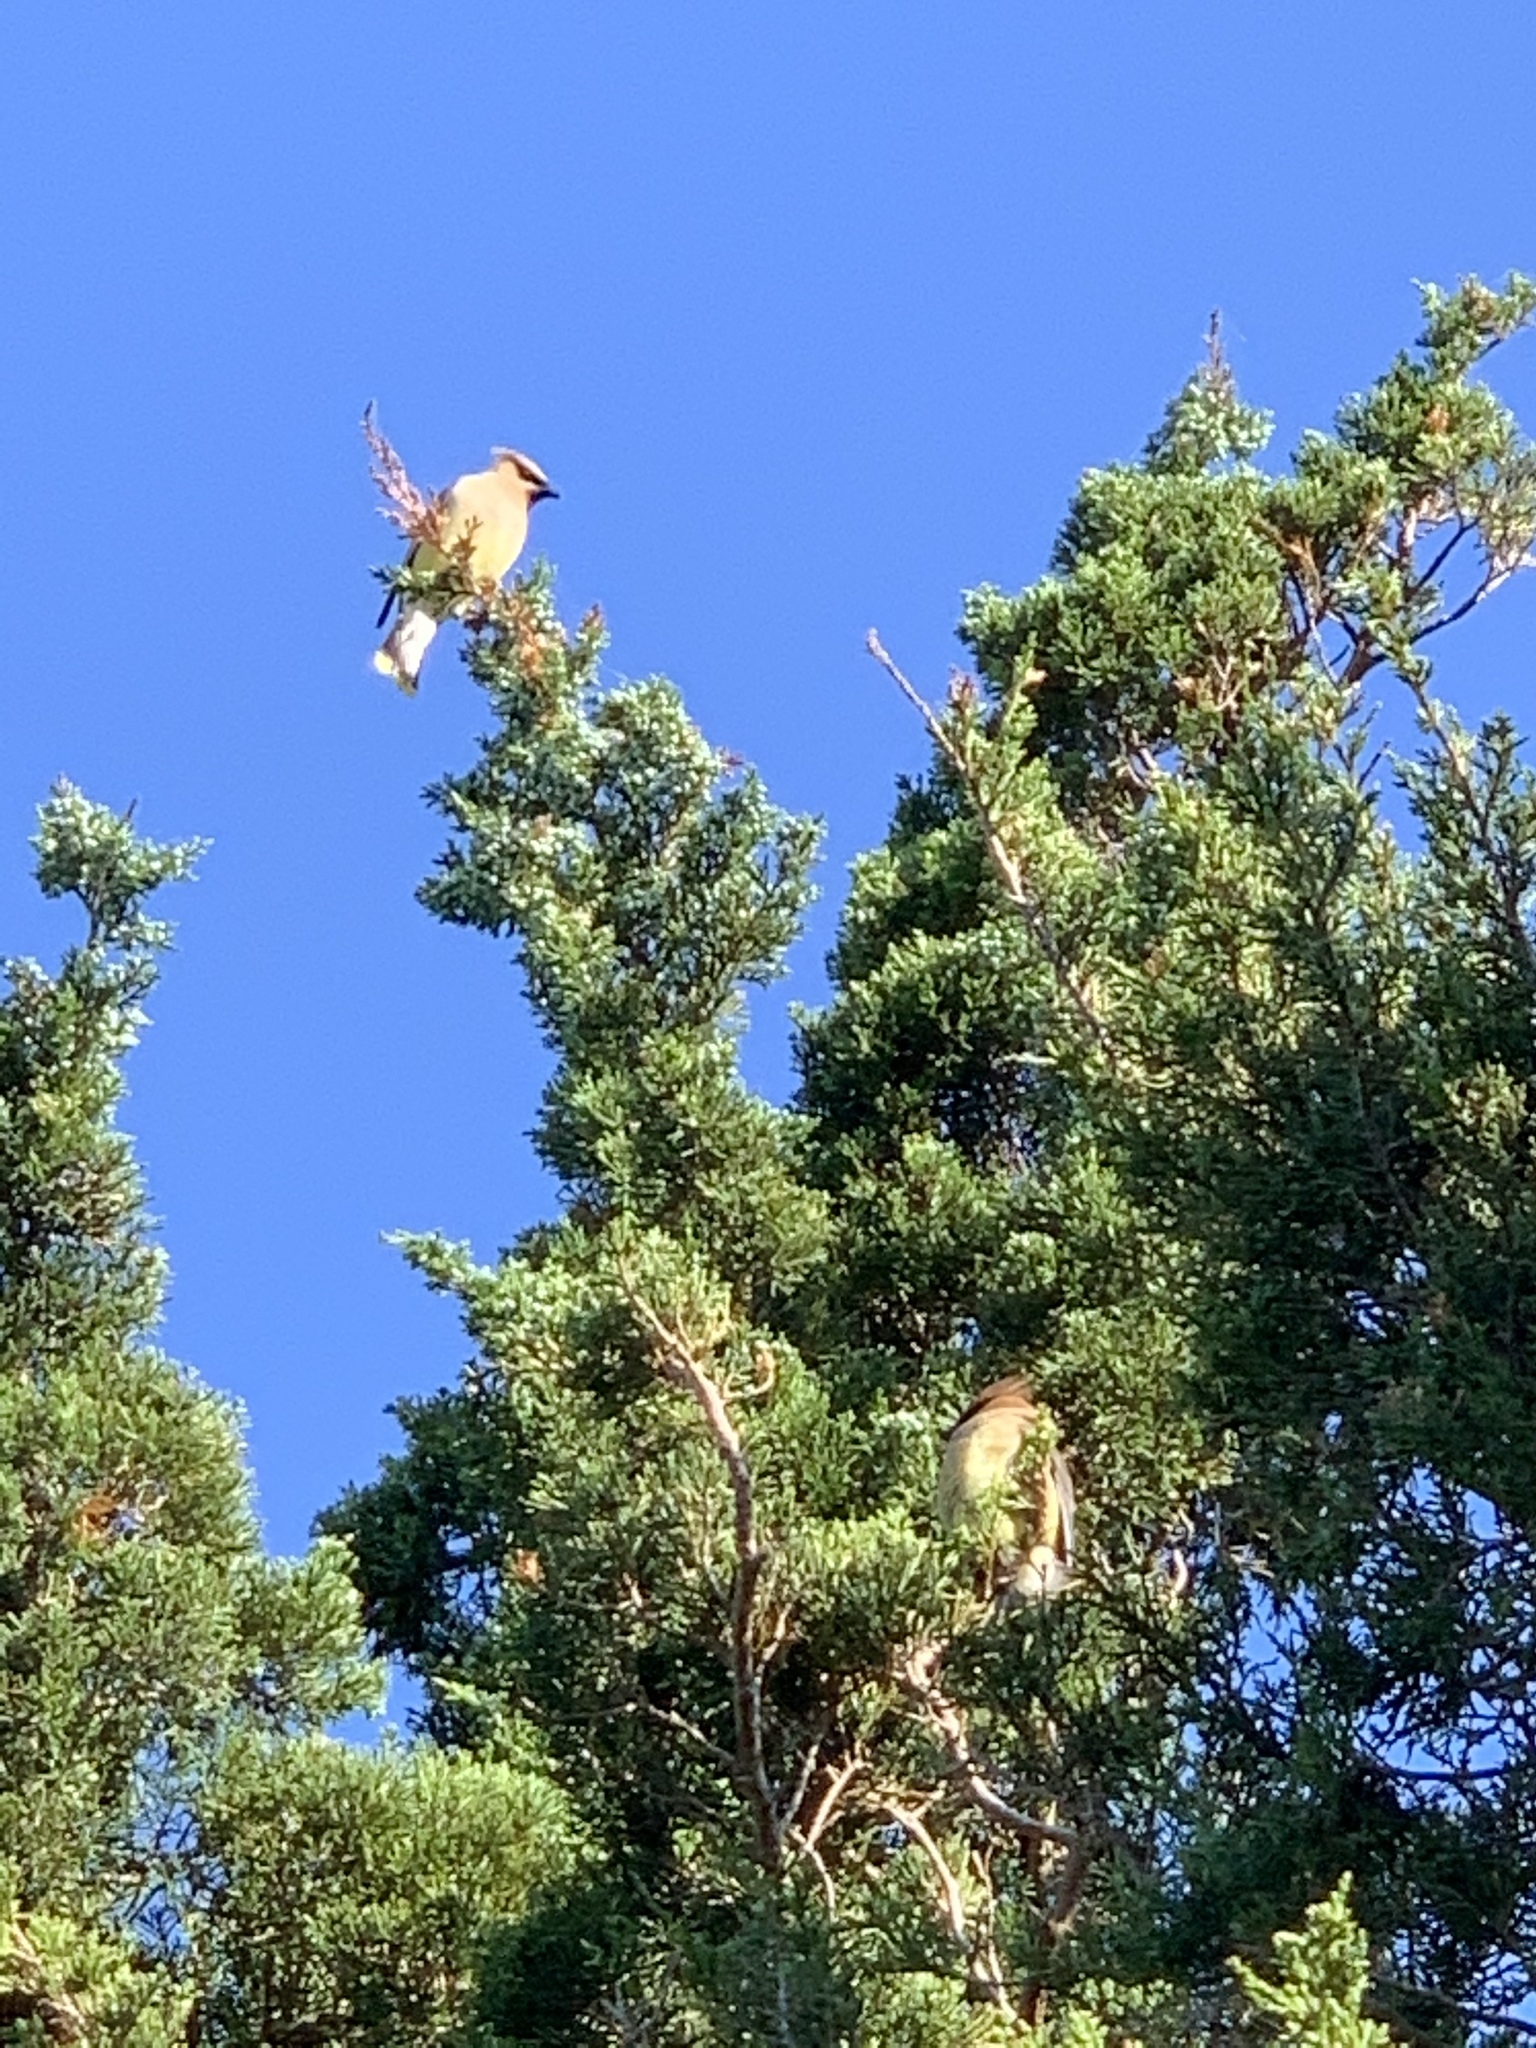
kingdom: Animalia
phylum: Chordata
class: Aves
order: Passeriformes
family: Bombycillidae
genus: Bombycilla
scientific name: Bombycilla cedrorum
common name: Cedar waxwing
